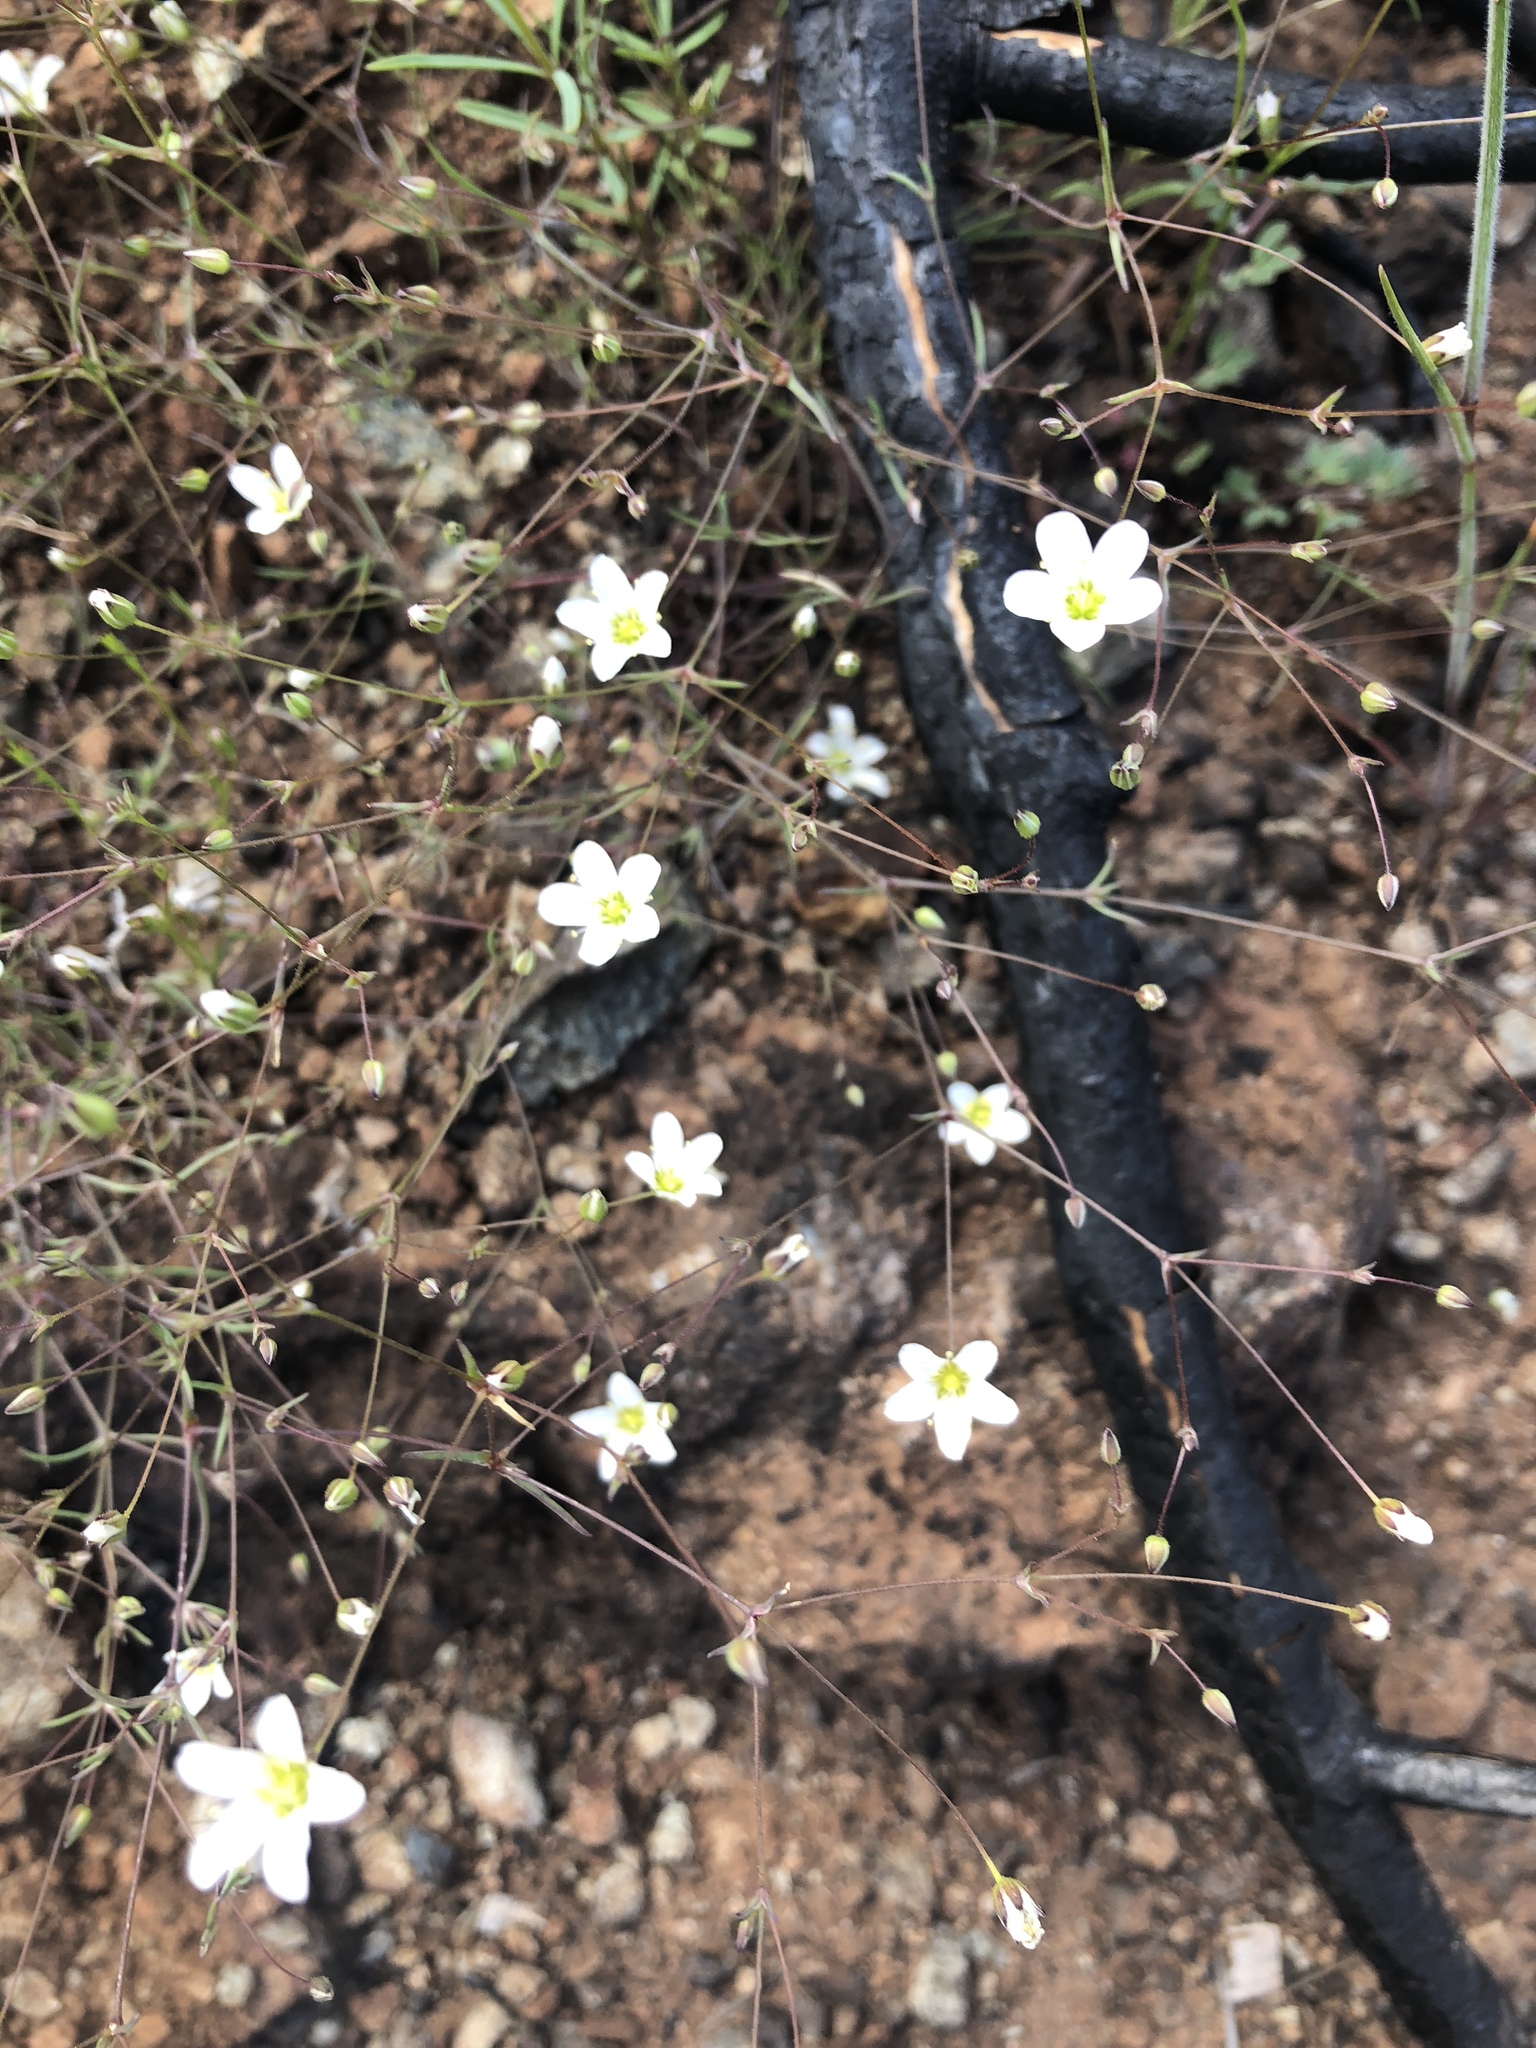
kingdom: Plantae
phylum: Tracheophyta
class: Magnoliopsida
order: Caryophyllales
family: Caryophyllaceae
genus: Sabulina
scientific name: Sabulina douglasii
